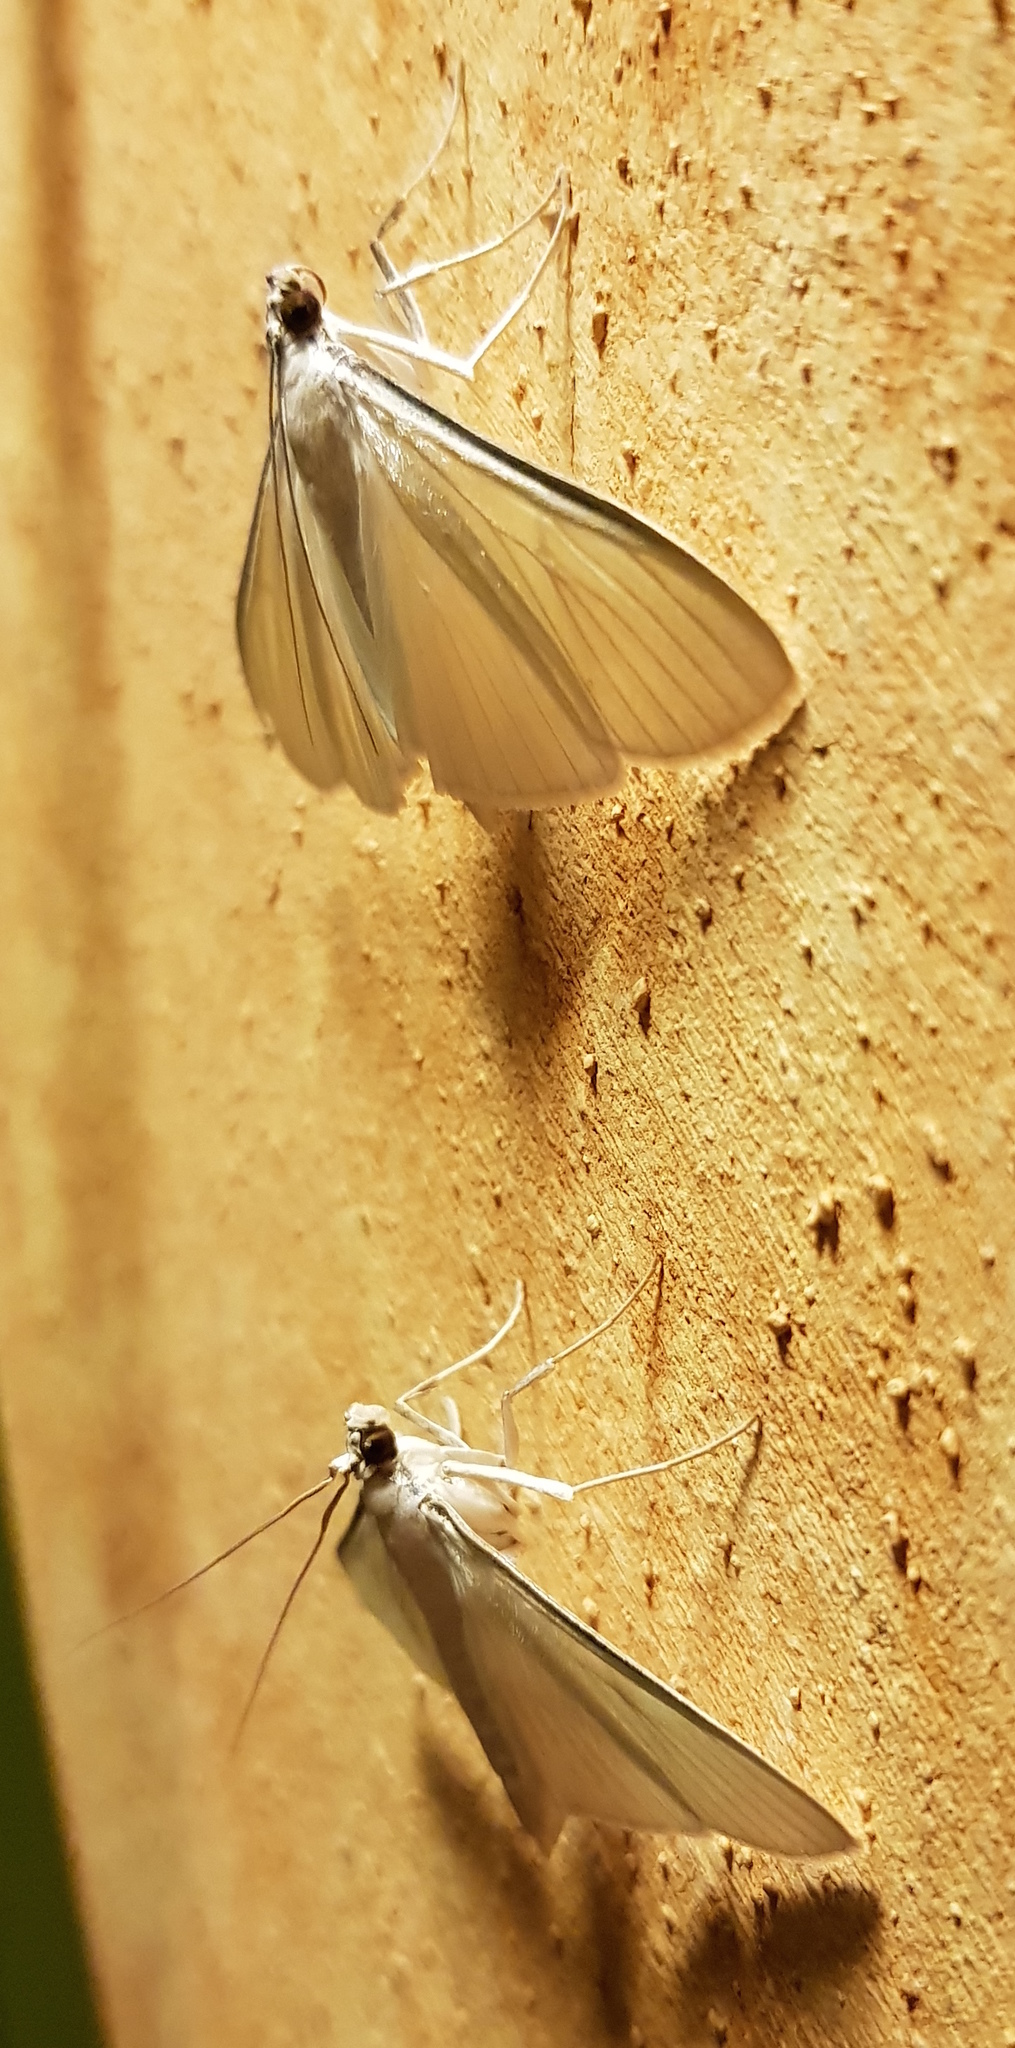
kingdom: Animalia
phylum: Arthropoda
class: Insecta
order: Lepidoptera
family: Crambidae
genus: Palpita
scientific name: Palpita flegia
